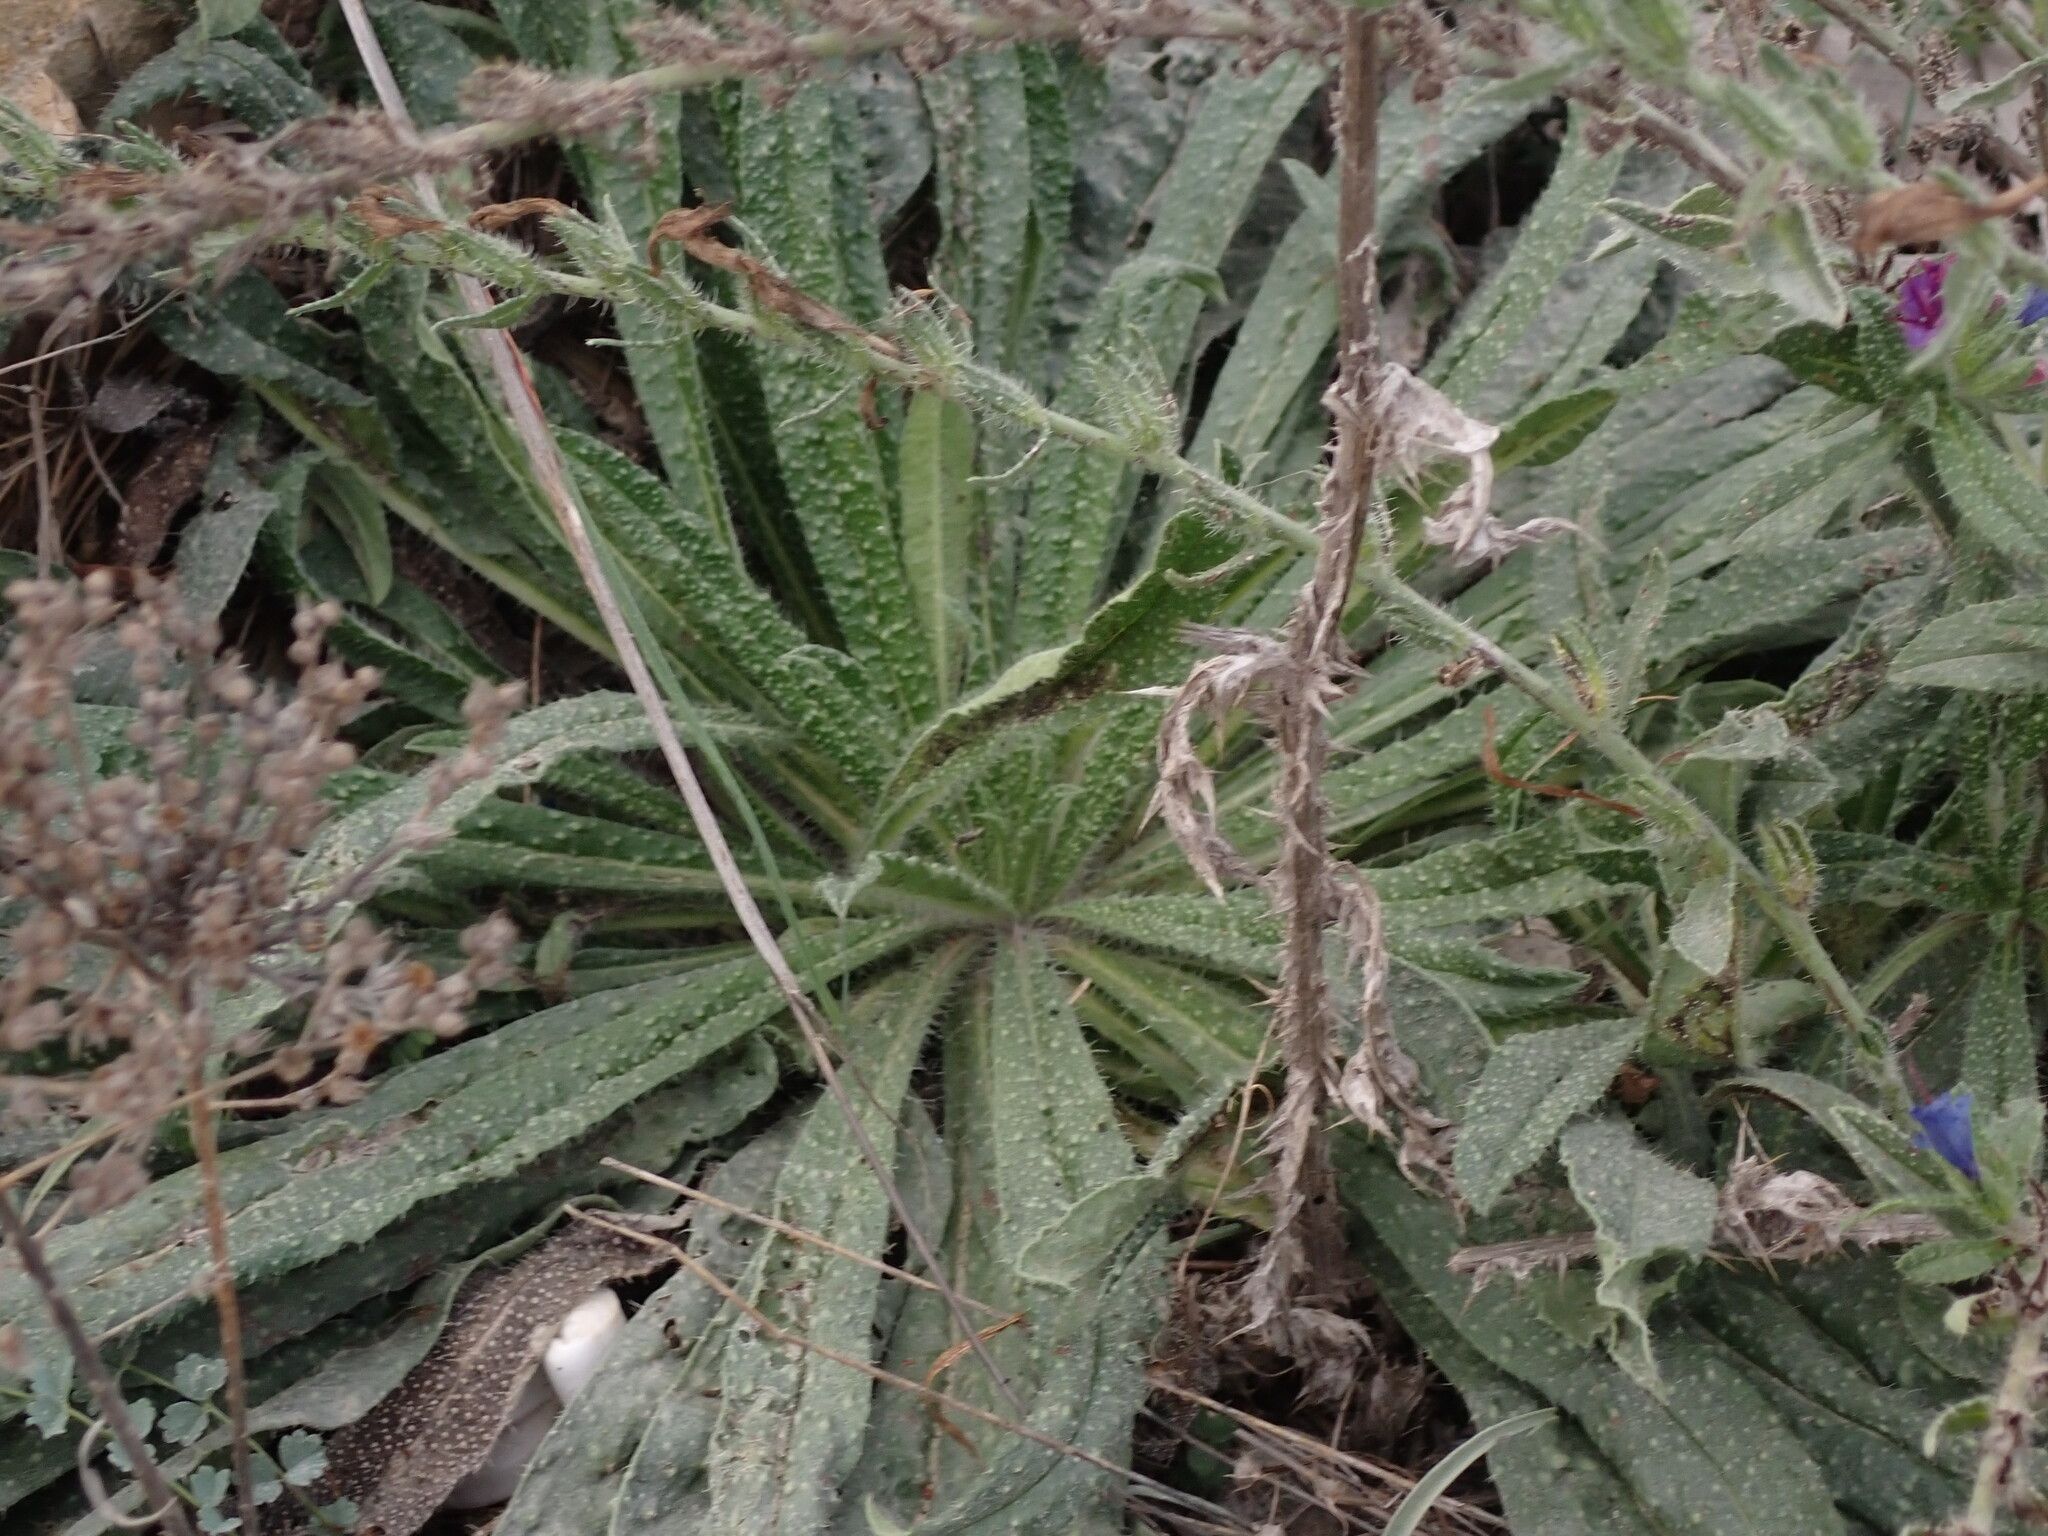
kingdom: Plantae
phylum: Tracheophyta
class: Magnoliopsida
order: Boraginales
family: Boraginaceae
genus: Echium
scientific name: Echium vulgare
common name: Common viper's bugloss
